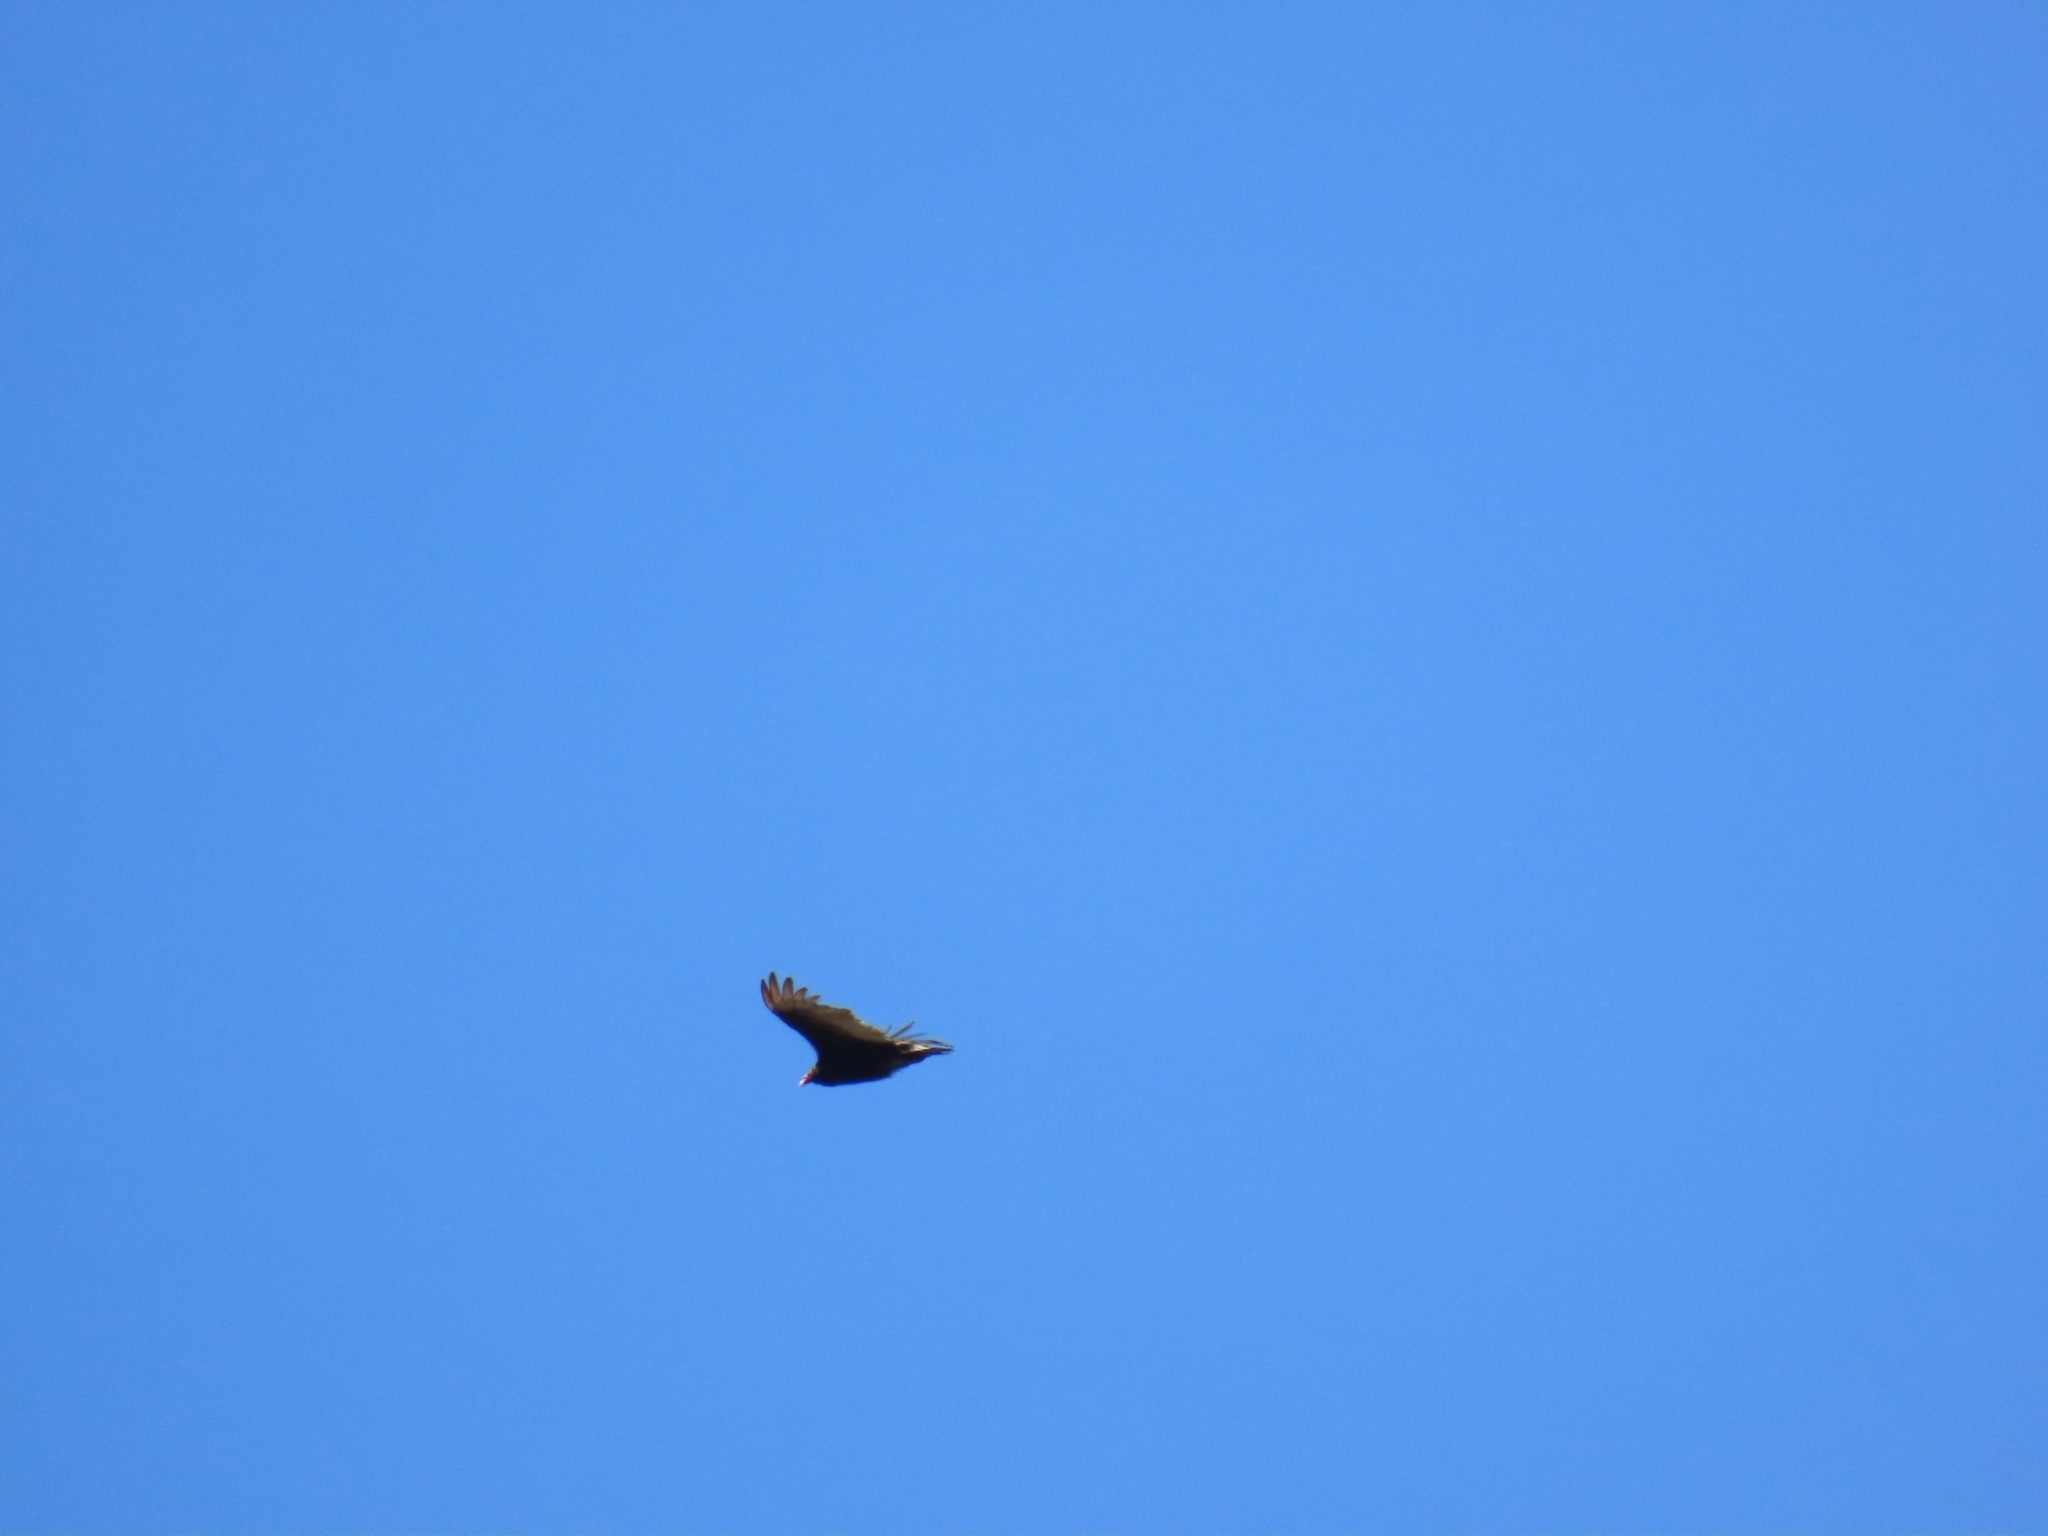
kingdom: Animalia
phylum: Chordata
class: Aves
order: Accipitriformes
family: Cathartidae
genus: Cathartes
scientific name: Cathartes aura
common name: Turkey vulture
